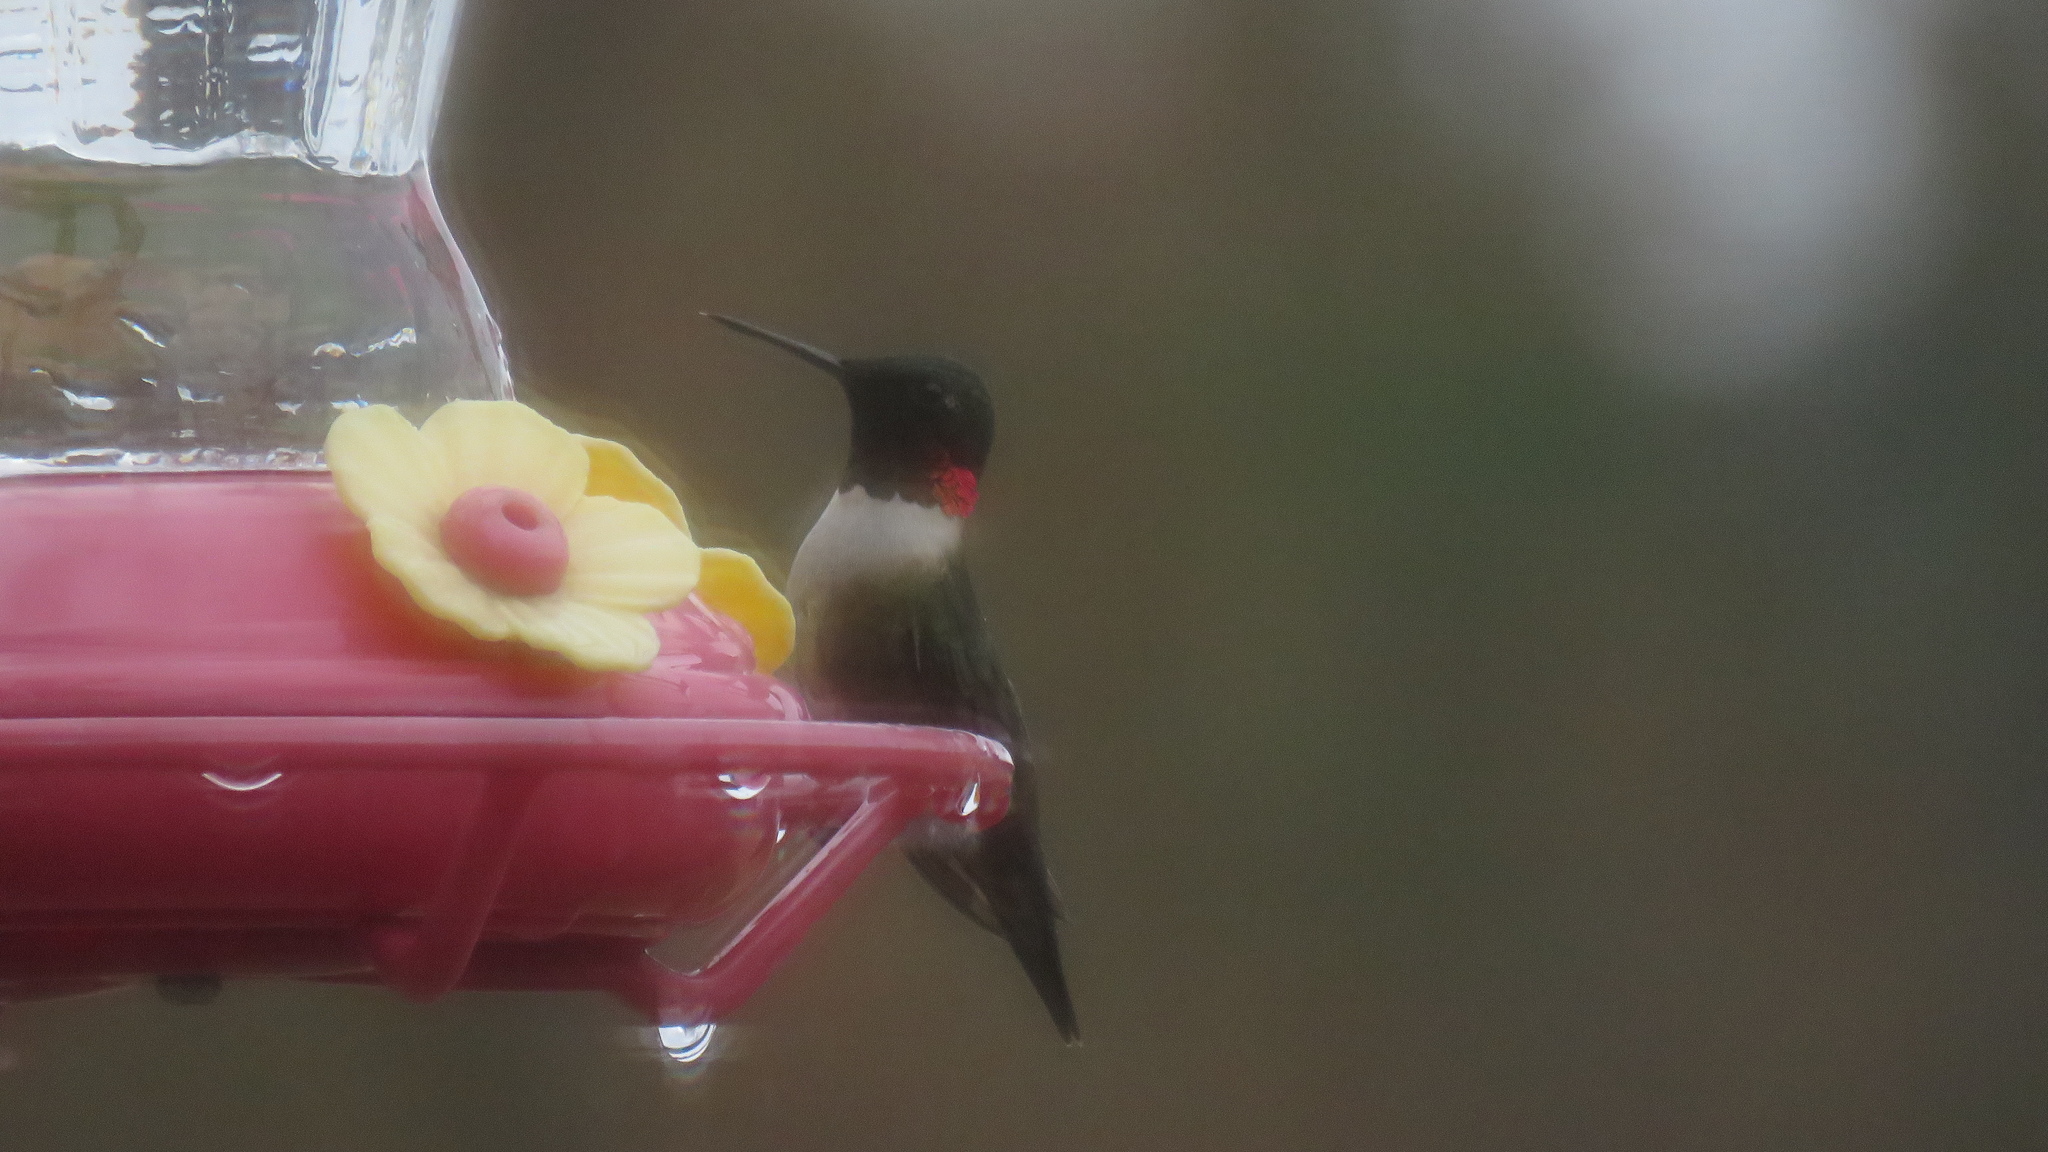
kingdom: Animalia
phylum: Chordata
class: Aves
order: Apodiformes
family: Trochilidae
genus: Archilochus
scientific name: Archilochus colubris
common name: Ruby-throated hummingbird
